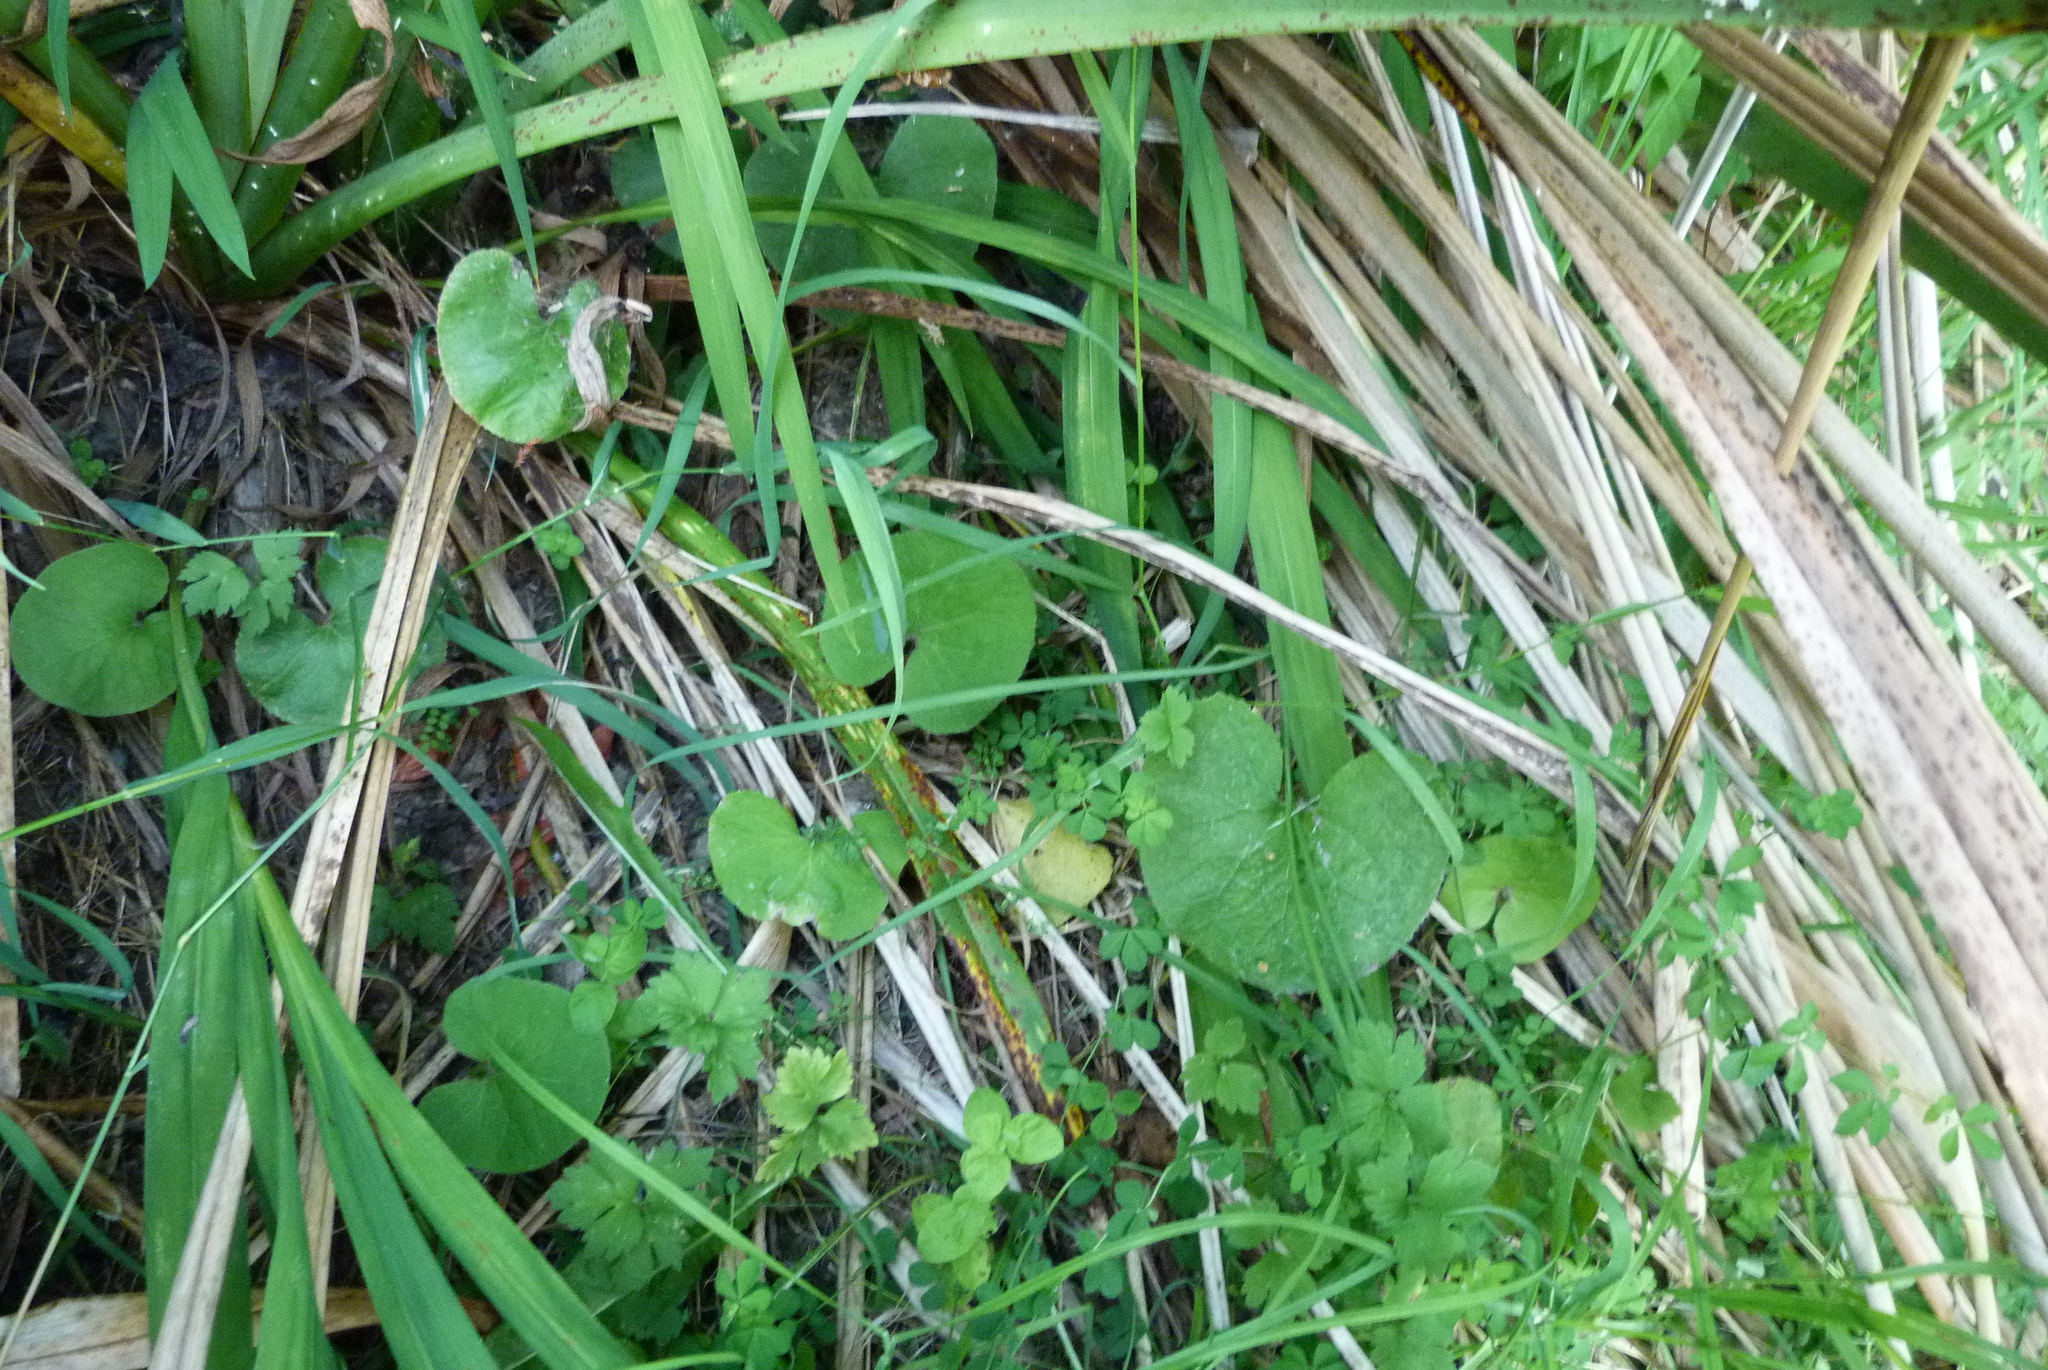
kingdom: Plantae
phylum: Tracheophyta
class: Magnoliopsida
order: Asterales
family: Asteraceae
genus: Petasites
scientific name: Petasites pyrenaicus
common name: Winter heliotrope
